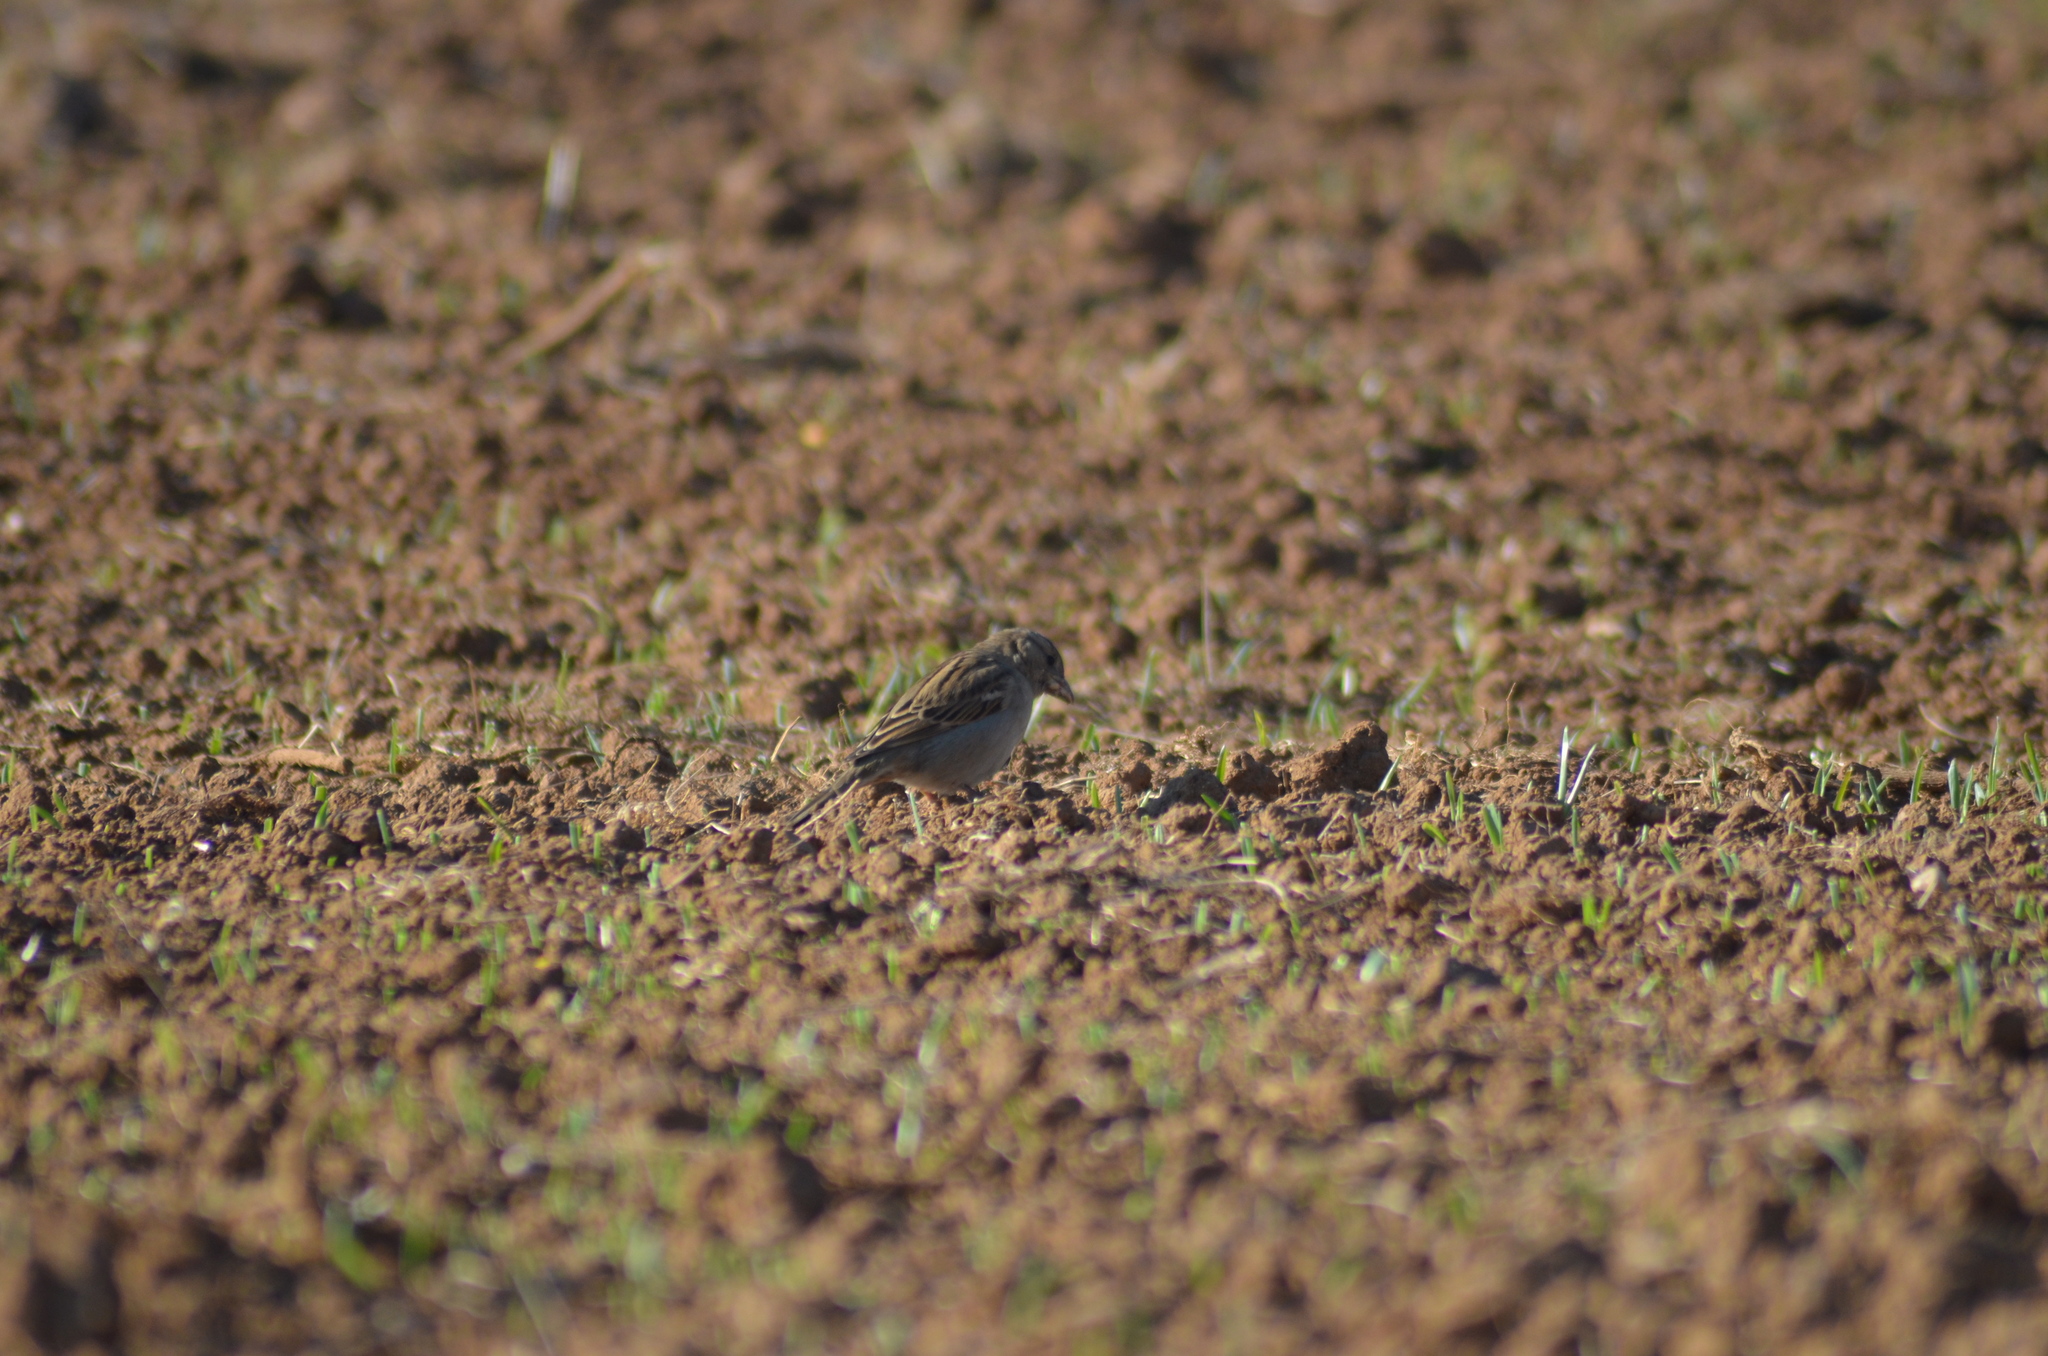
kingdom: Animalia
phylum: Chordata
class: Aves
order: Passeriformes
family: Passeridae
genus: Passer
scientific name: Passer domesticus
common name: House sparrow
